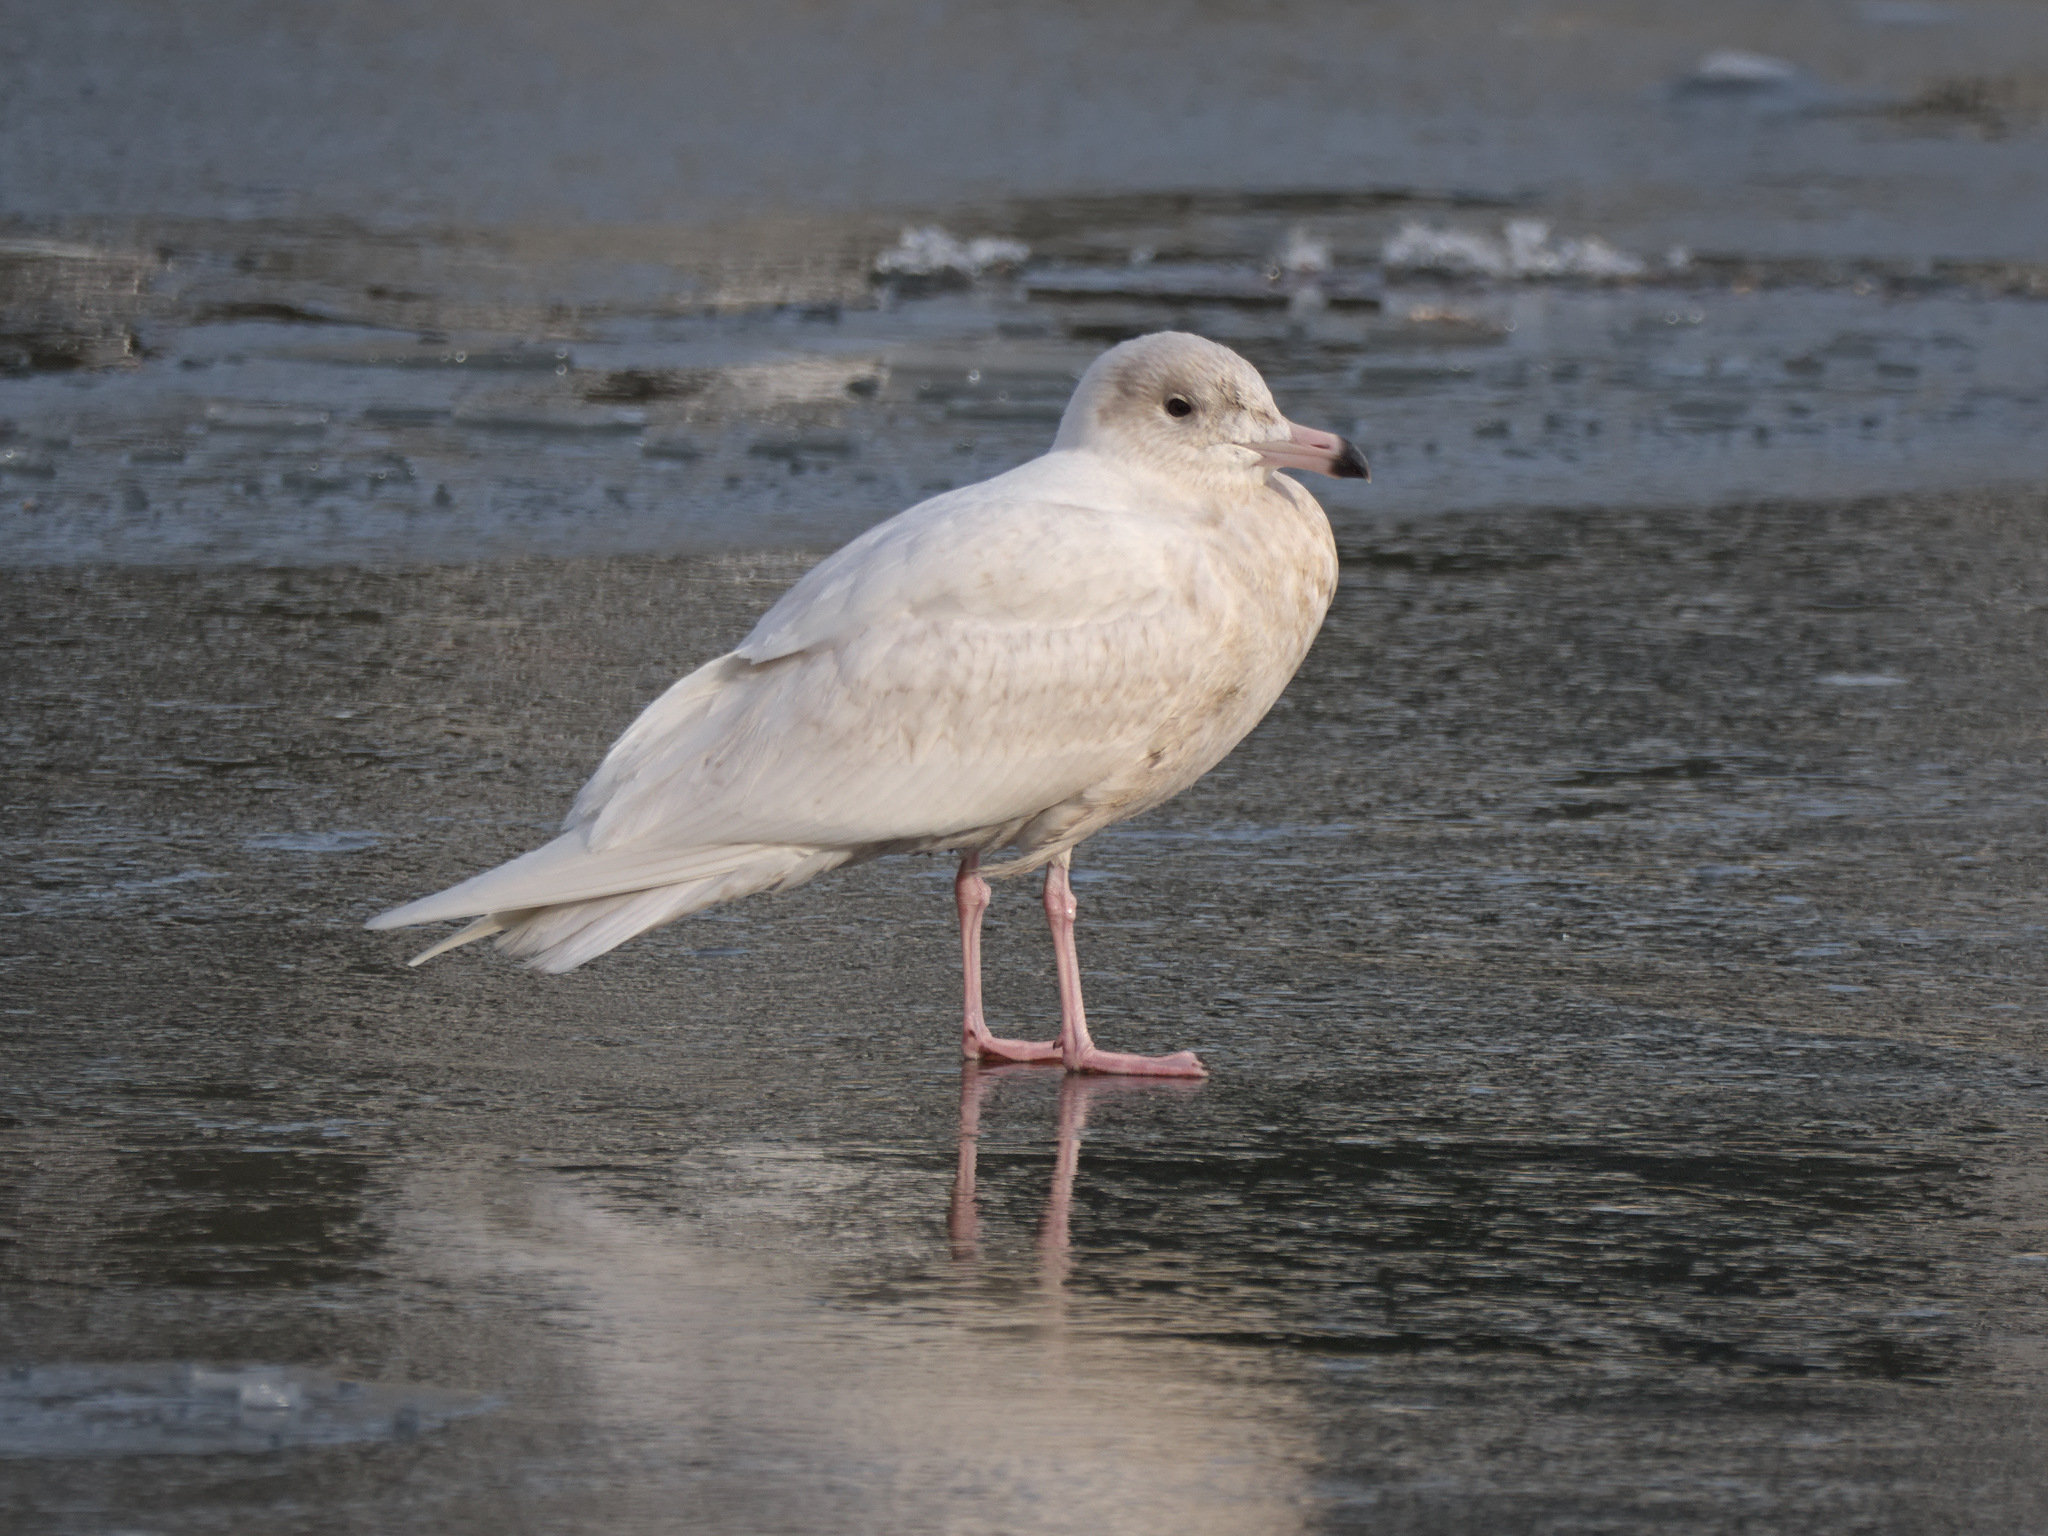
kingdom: Animalia
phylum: Chordata
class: Aves
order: Charadriiformes
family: Laridae
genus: Larus
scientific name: Larus hyperboreus
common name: Glaucous gull
